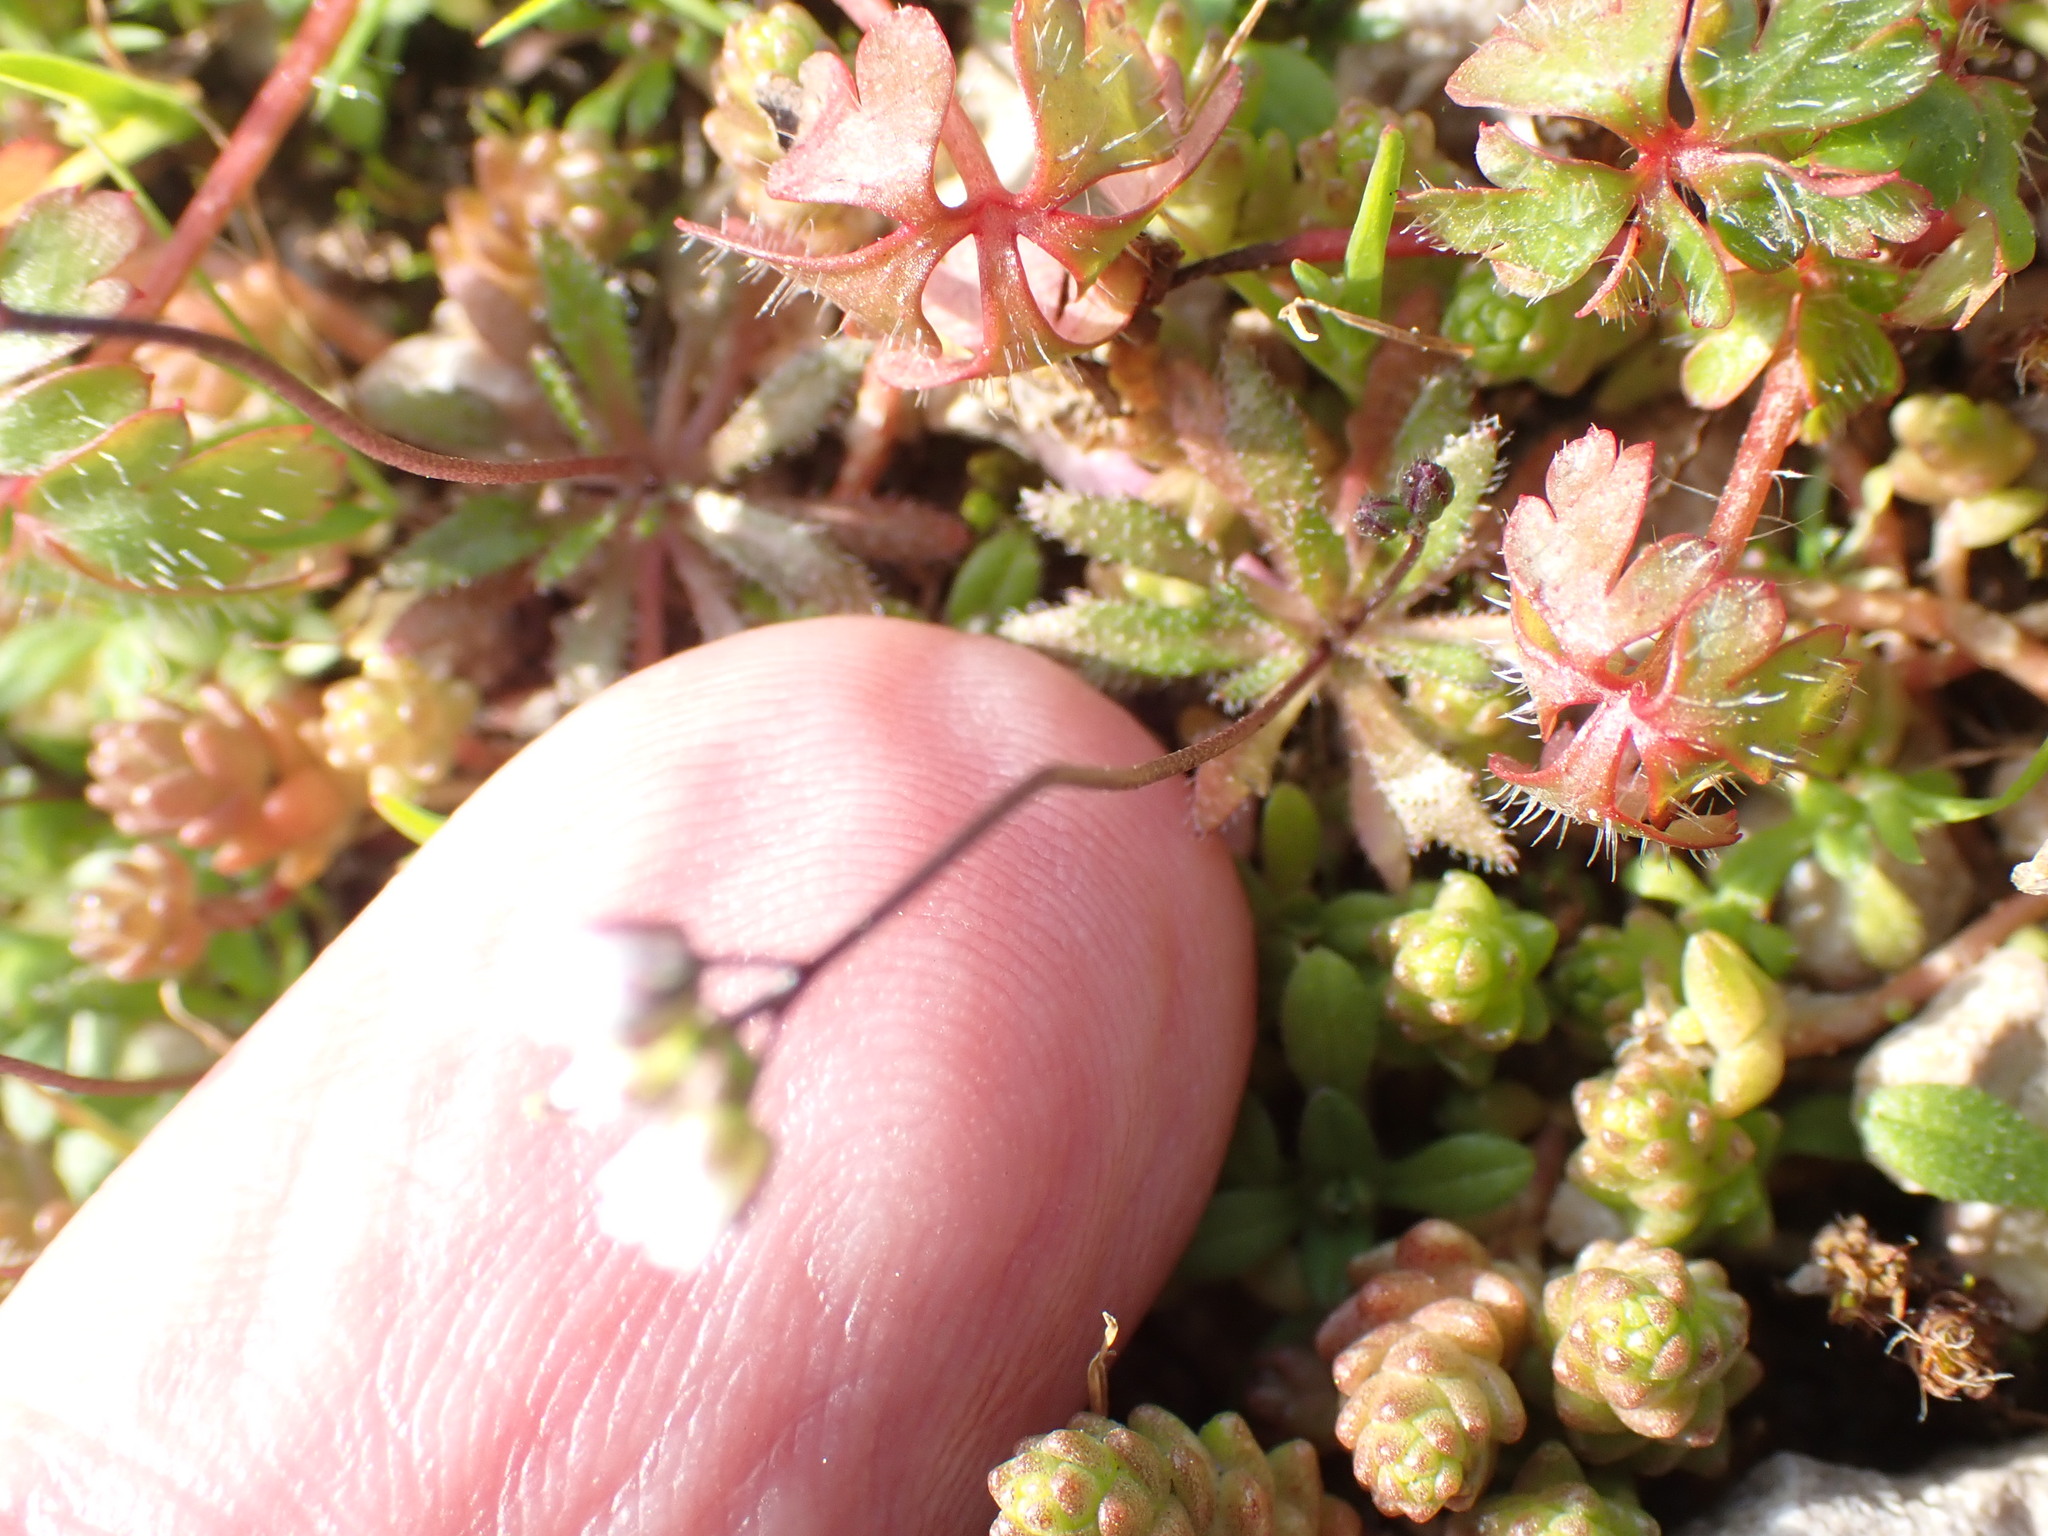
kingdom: Plantae
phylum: Tracheophyta
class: Magnoliopsida
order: Brassicales
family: Brassicaceae
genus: Draba
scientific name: Draba verna
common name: Spring draba
